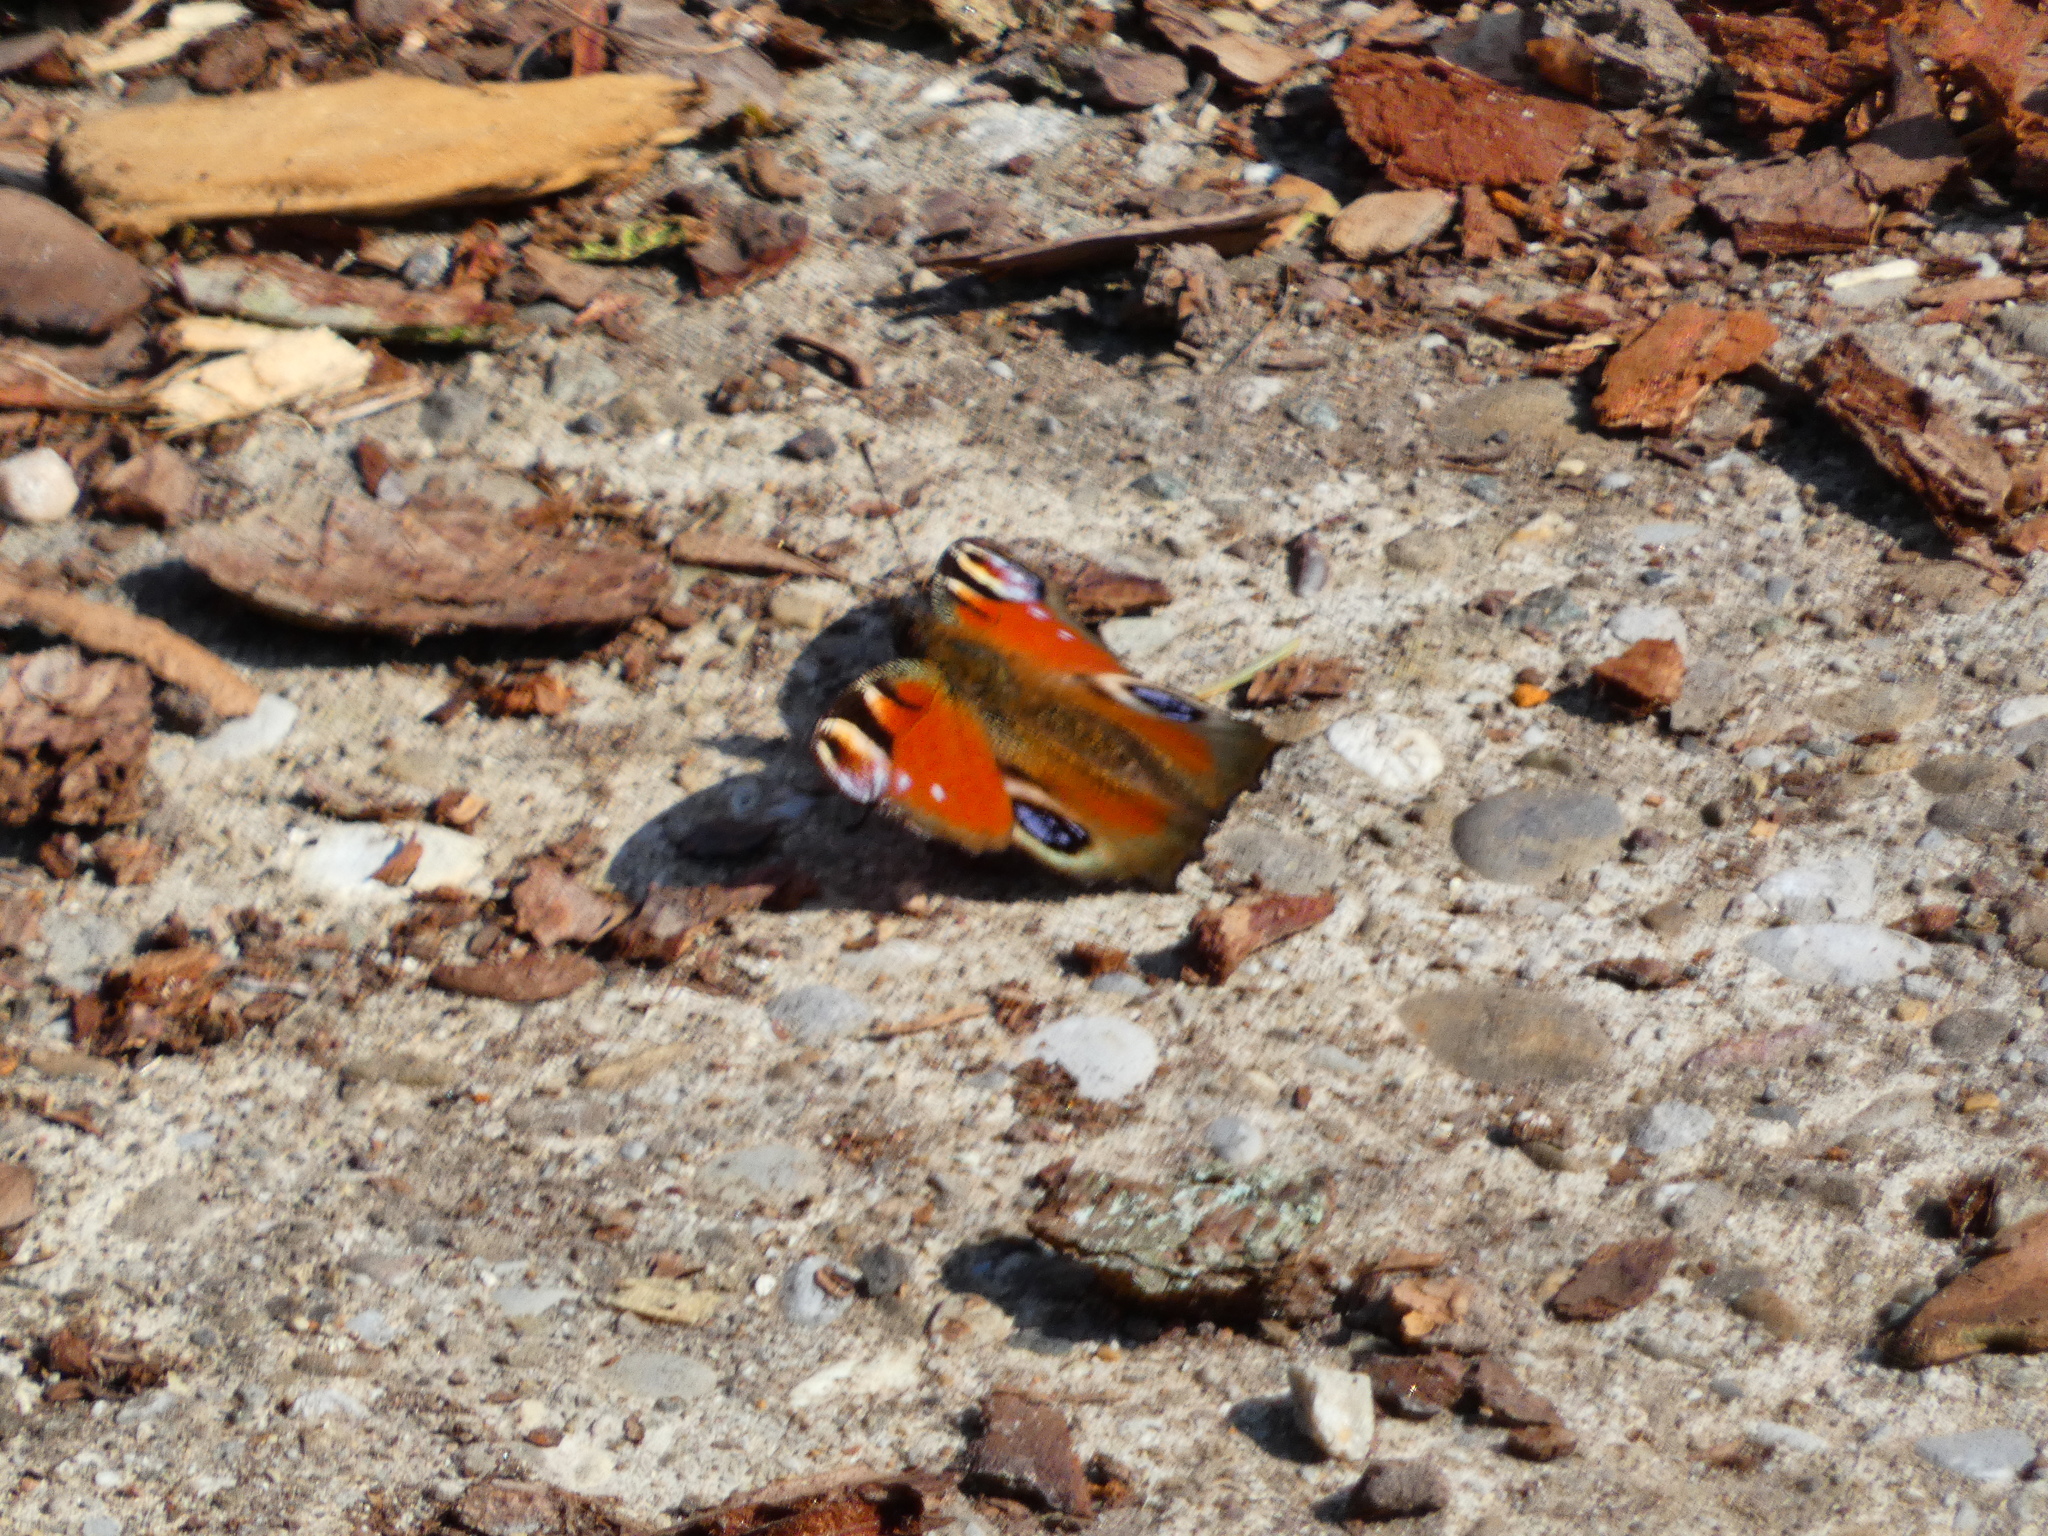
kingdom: Animalia
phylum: Arthropoda
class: Insecta
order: Lepidoptera
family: Nymphalidae
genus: Aglais
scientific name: Aglais io
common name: Peacock
